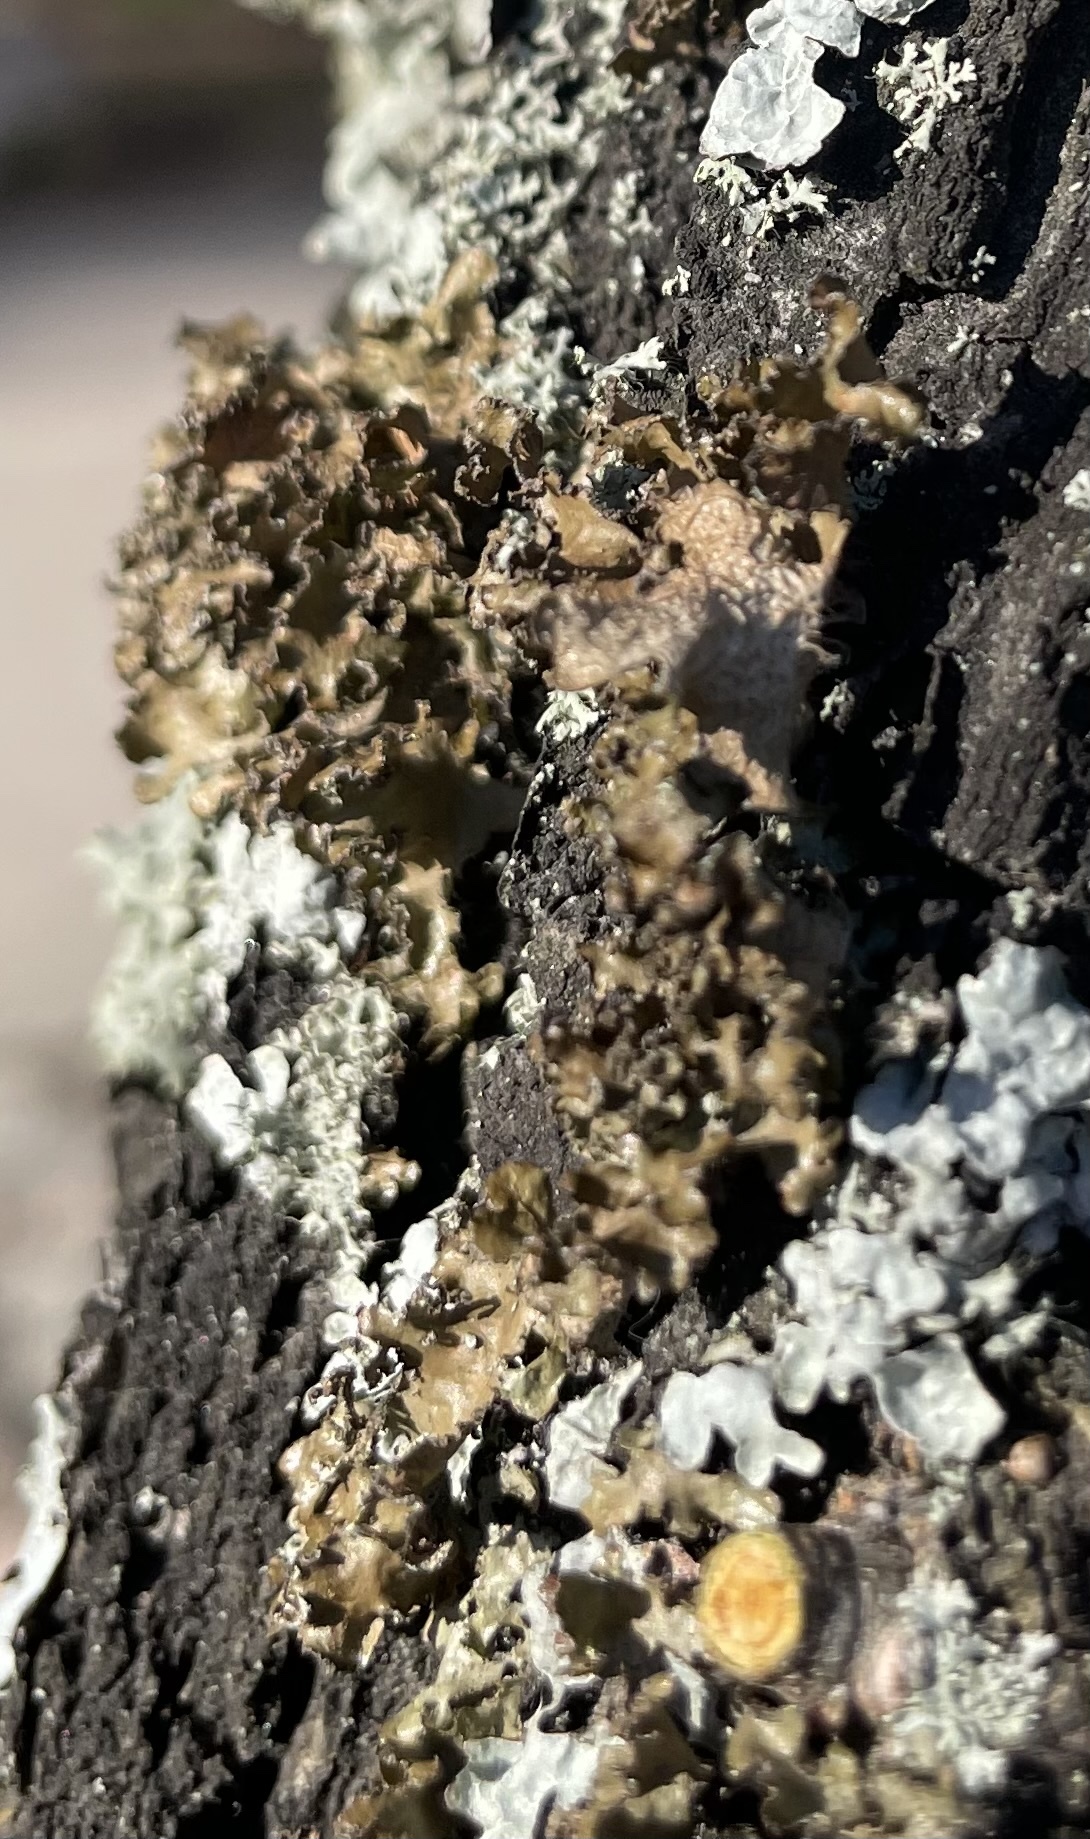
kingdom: Fungi
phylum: Ascomycota
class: Lecanoromycetes
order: Lecanorales
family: Parmeliaceae
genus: Nephromopsis
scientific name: Nephromopsis chlorophylla
